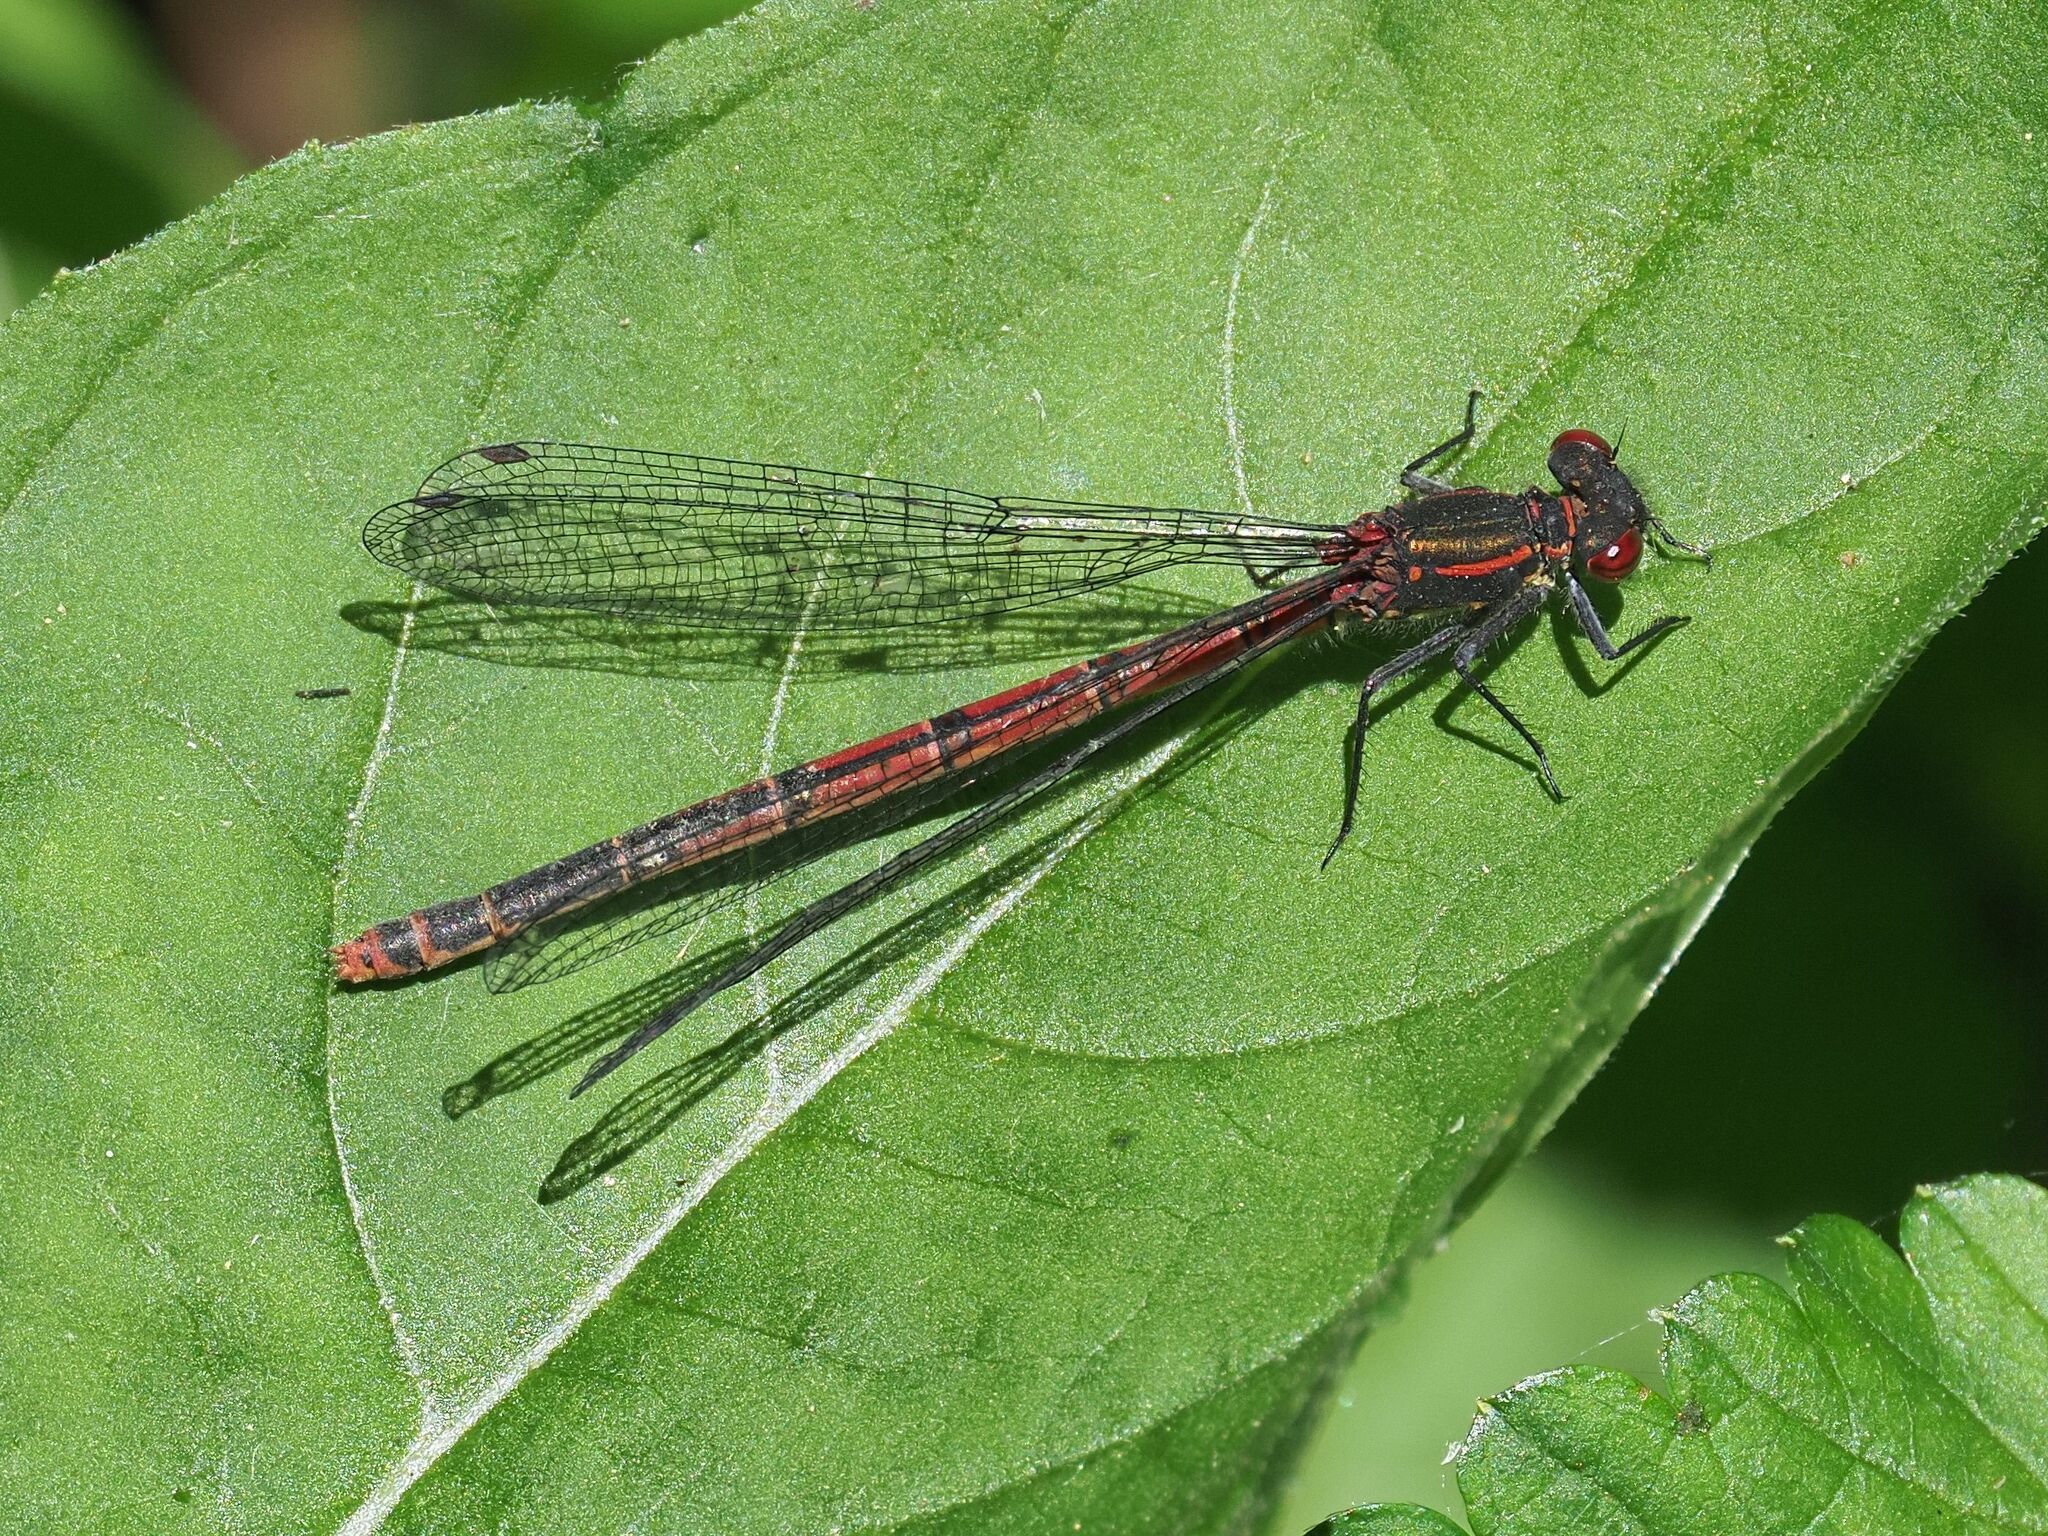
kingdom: Animalia
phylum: Arthropoda
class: Insecta
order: Odonata
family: Coenagrionidae
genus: Pyrrhosoma
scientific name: Pyrrhosoma nymphula
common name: Large red damsel
